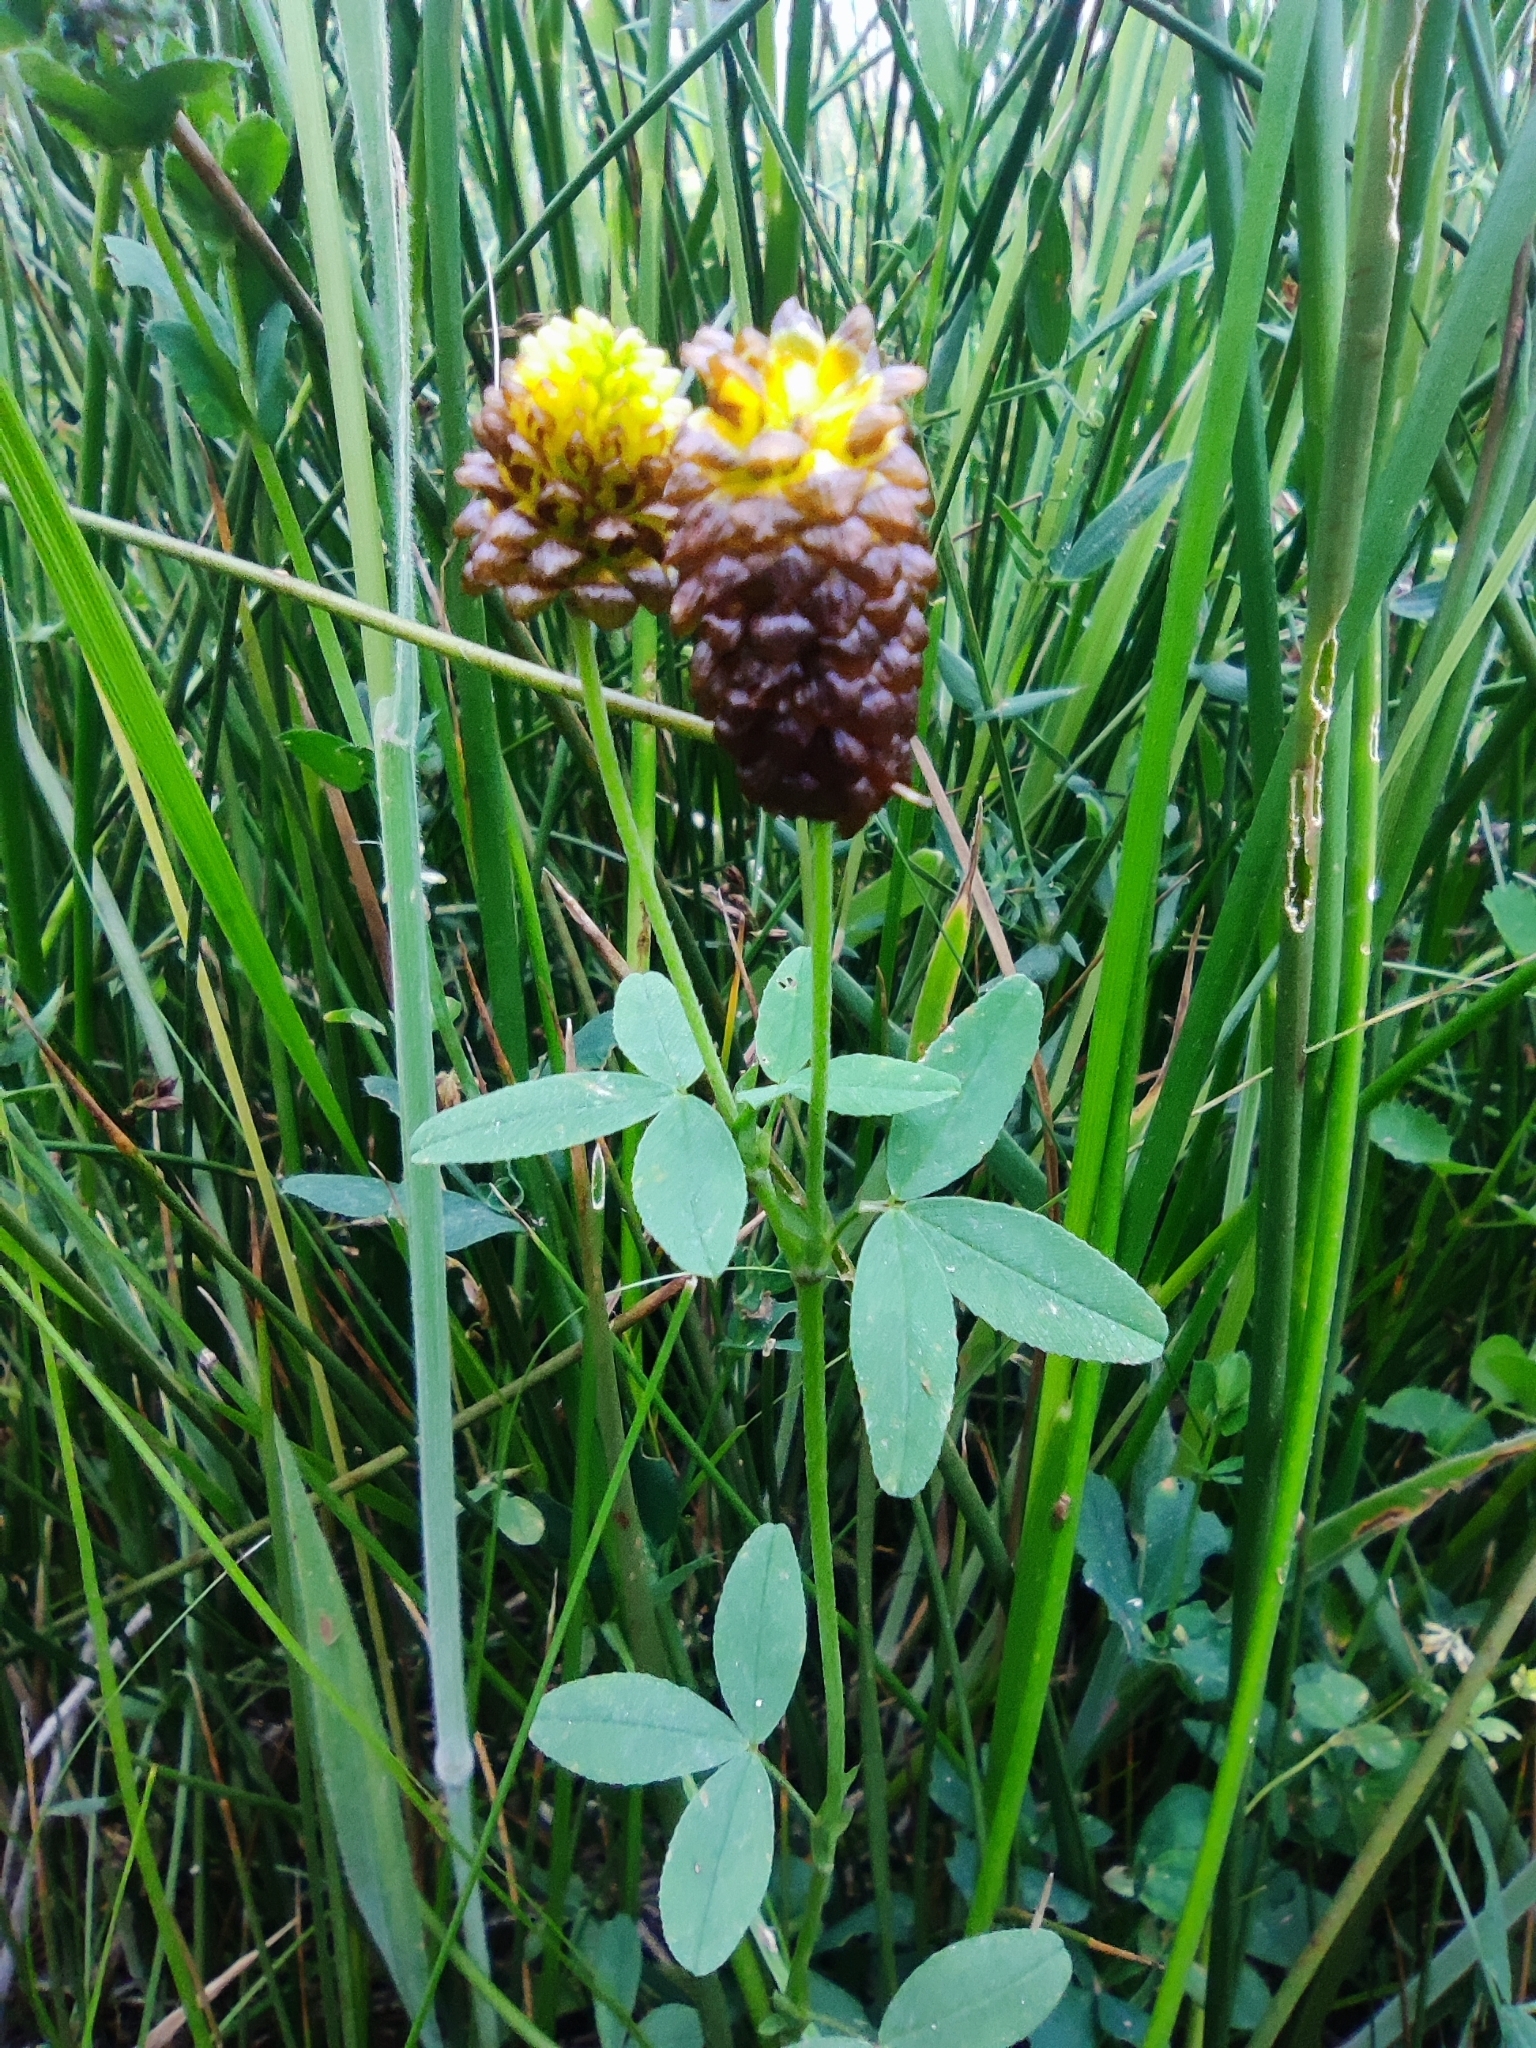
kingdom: Plantae
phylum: Tracheophyta
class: Magnoliopsida
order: Fabales
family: Fabaceae
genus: Trifolium
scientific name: Trifolium spadiceum
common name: Brown moor clover
